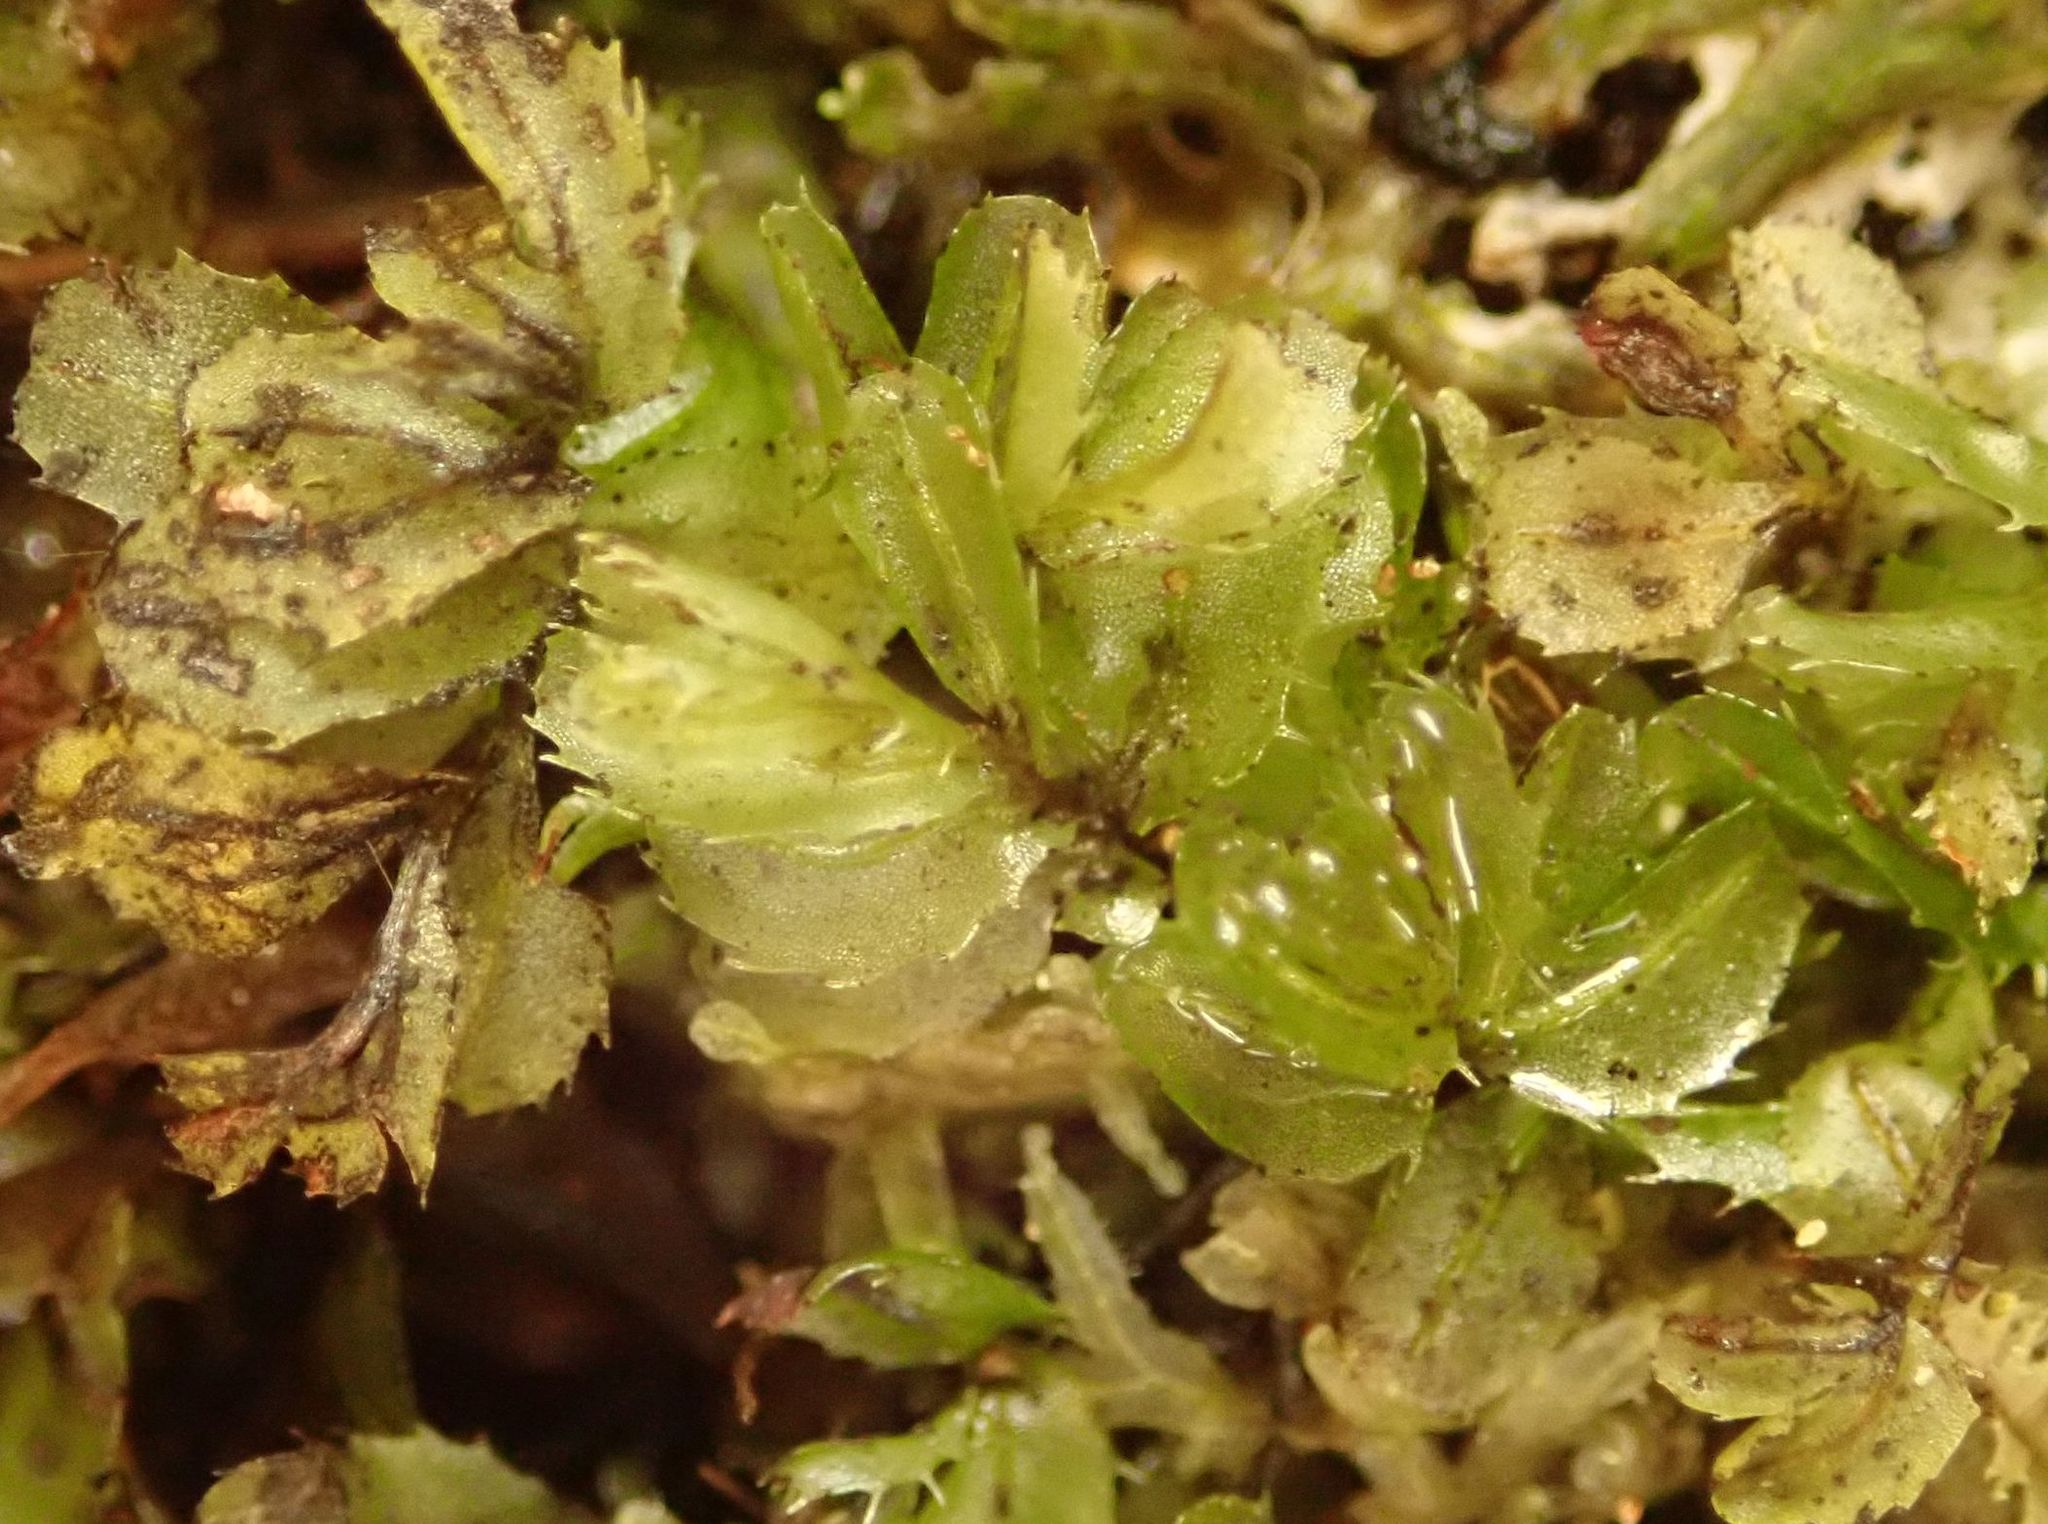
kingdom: Plantae
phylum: Tracheophyta
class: Polypodiopsida
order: Hymenophyllales
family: Hymenophyllaceae
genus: Hymenophyllum
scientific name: Hymenophyllum minimum
